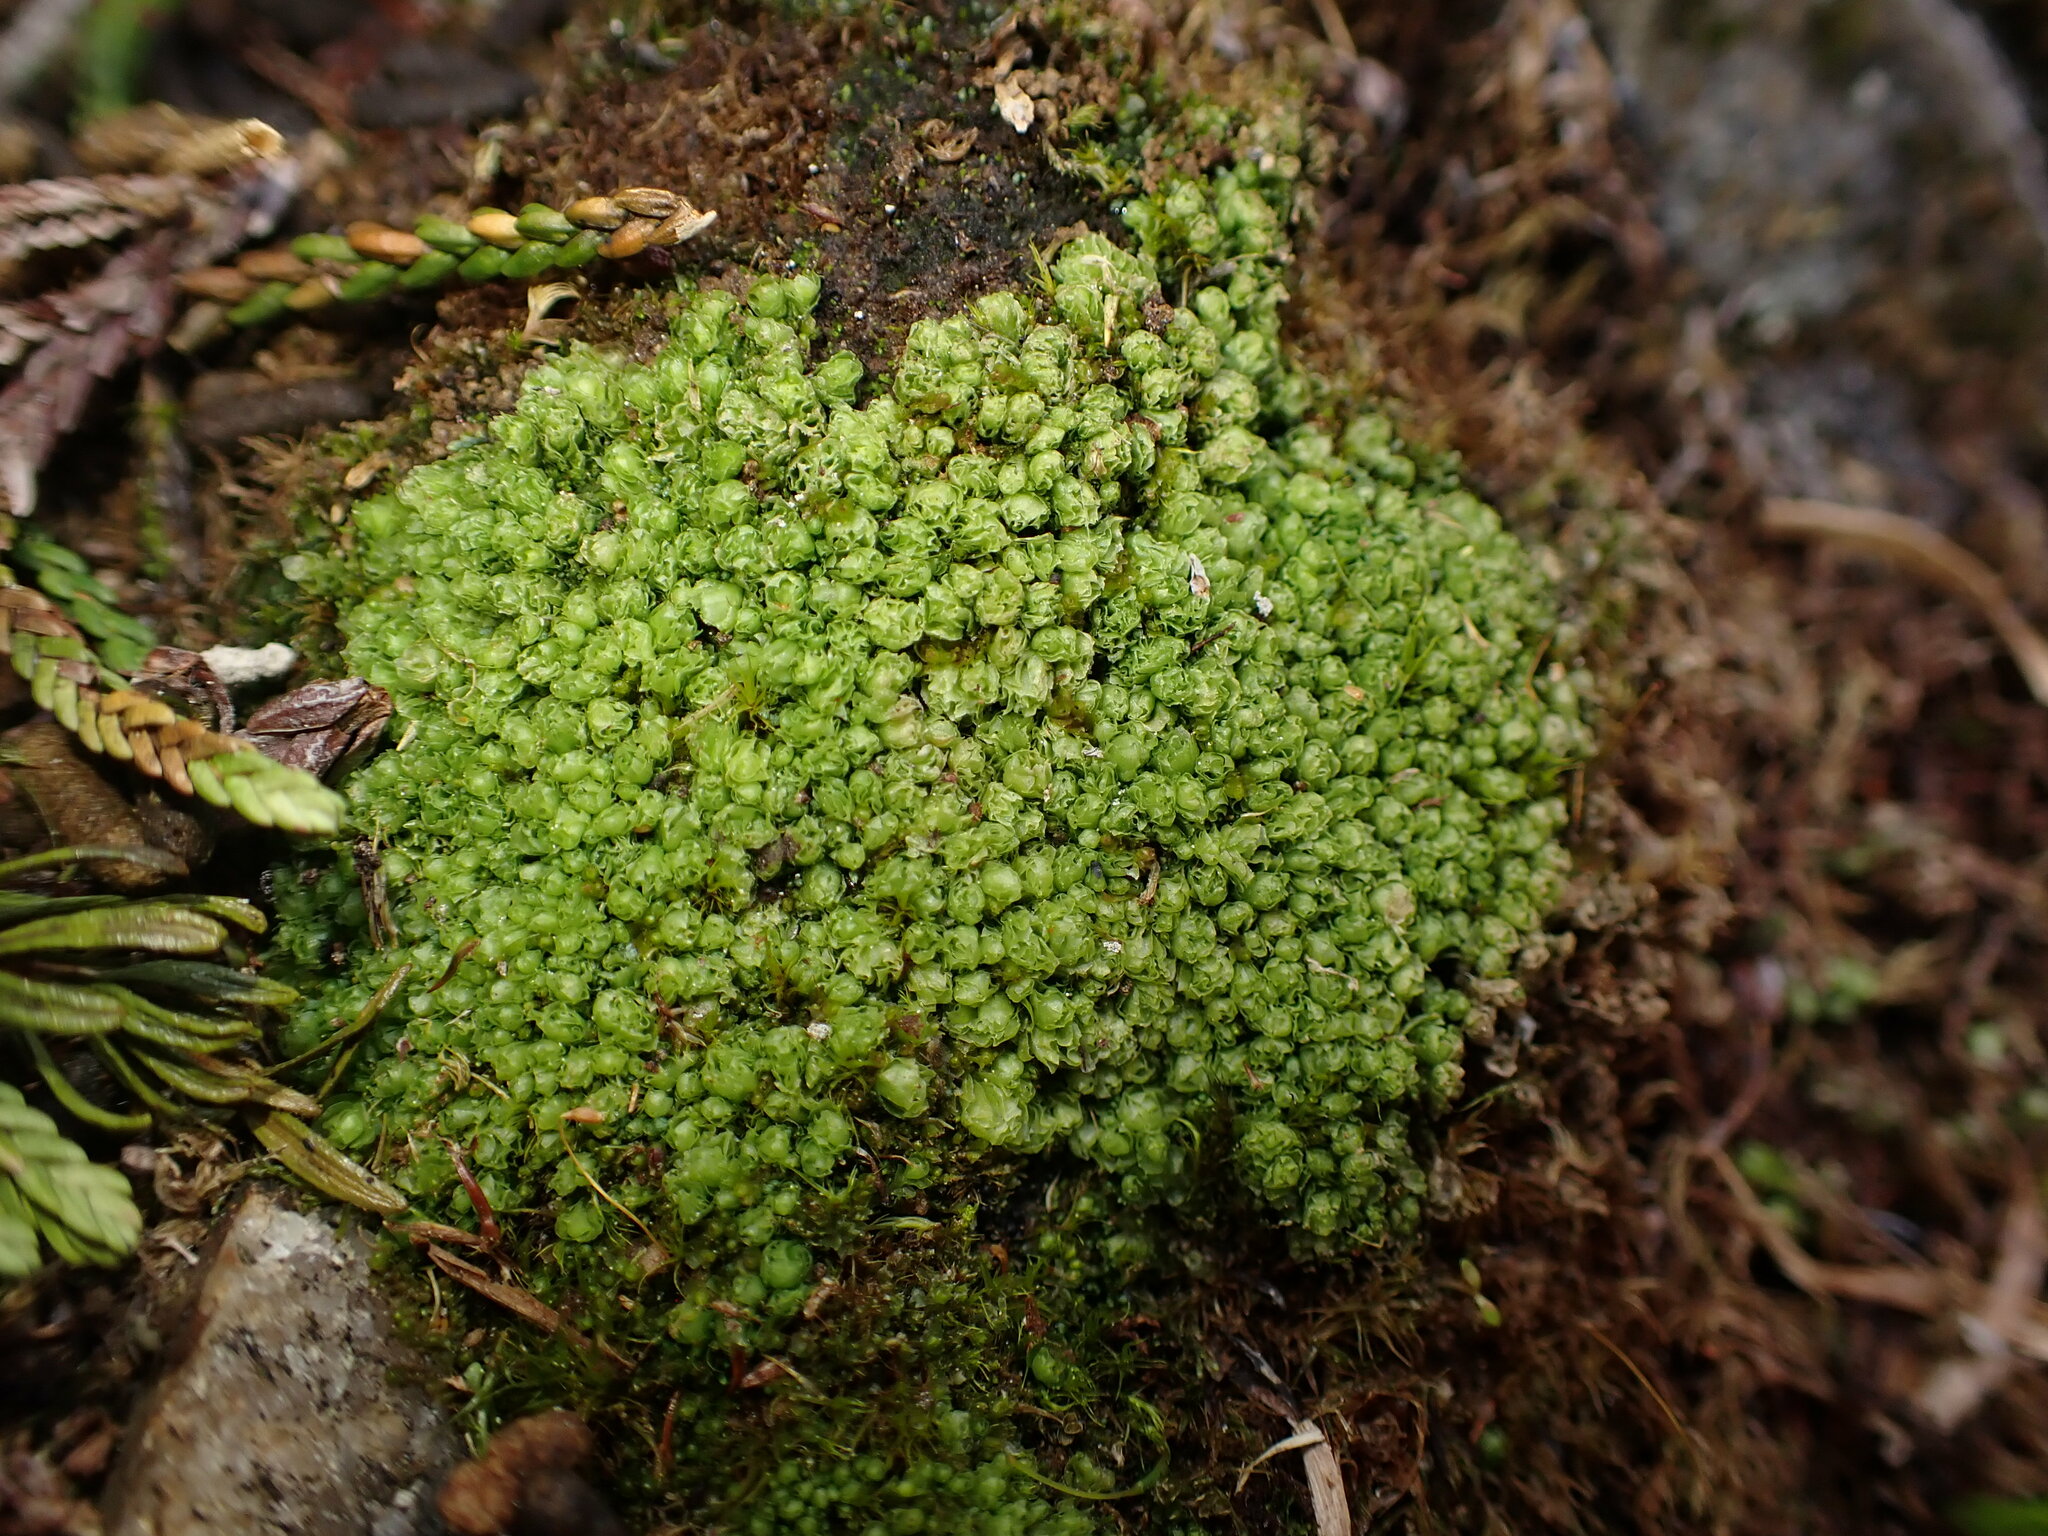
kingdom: Plantae
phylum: Marchantiophyta
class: Jungermanniopsida
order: Jungermanniales
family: Scapaniaceae
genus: Schistochilopsis
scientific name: Schistochilopsis opacifolia
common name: Alpine jagged notchwort
